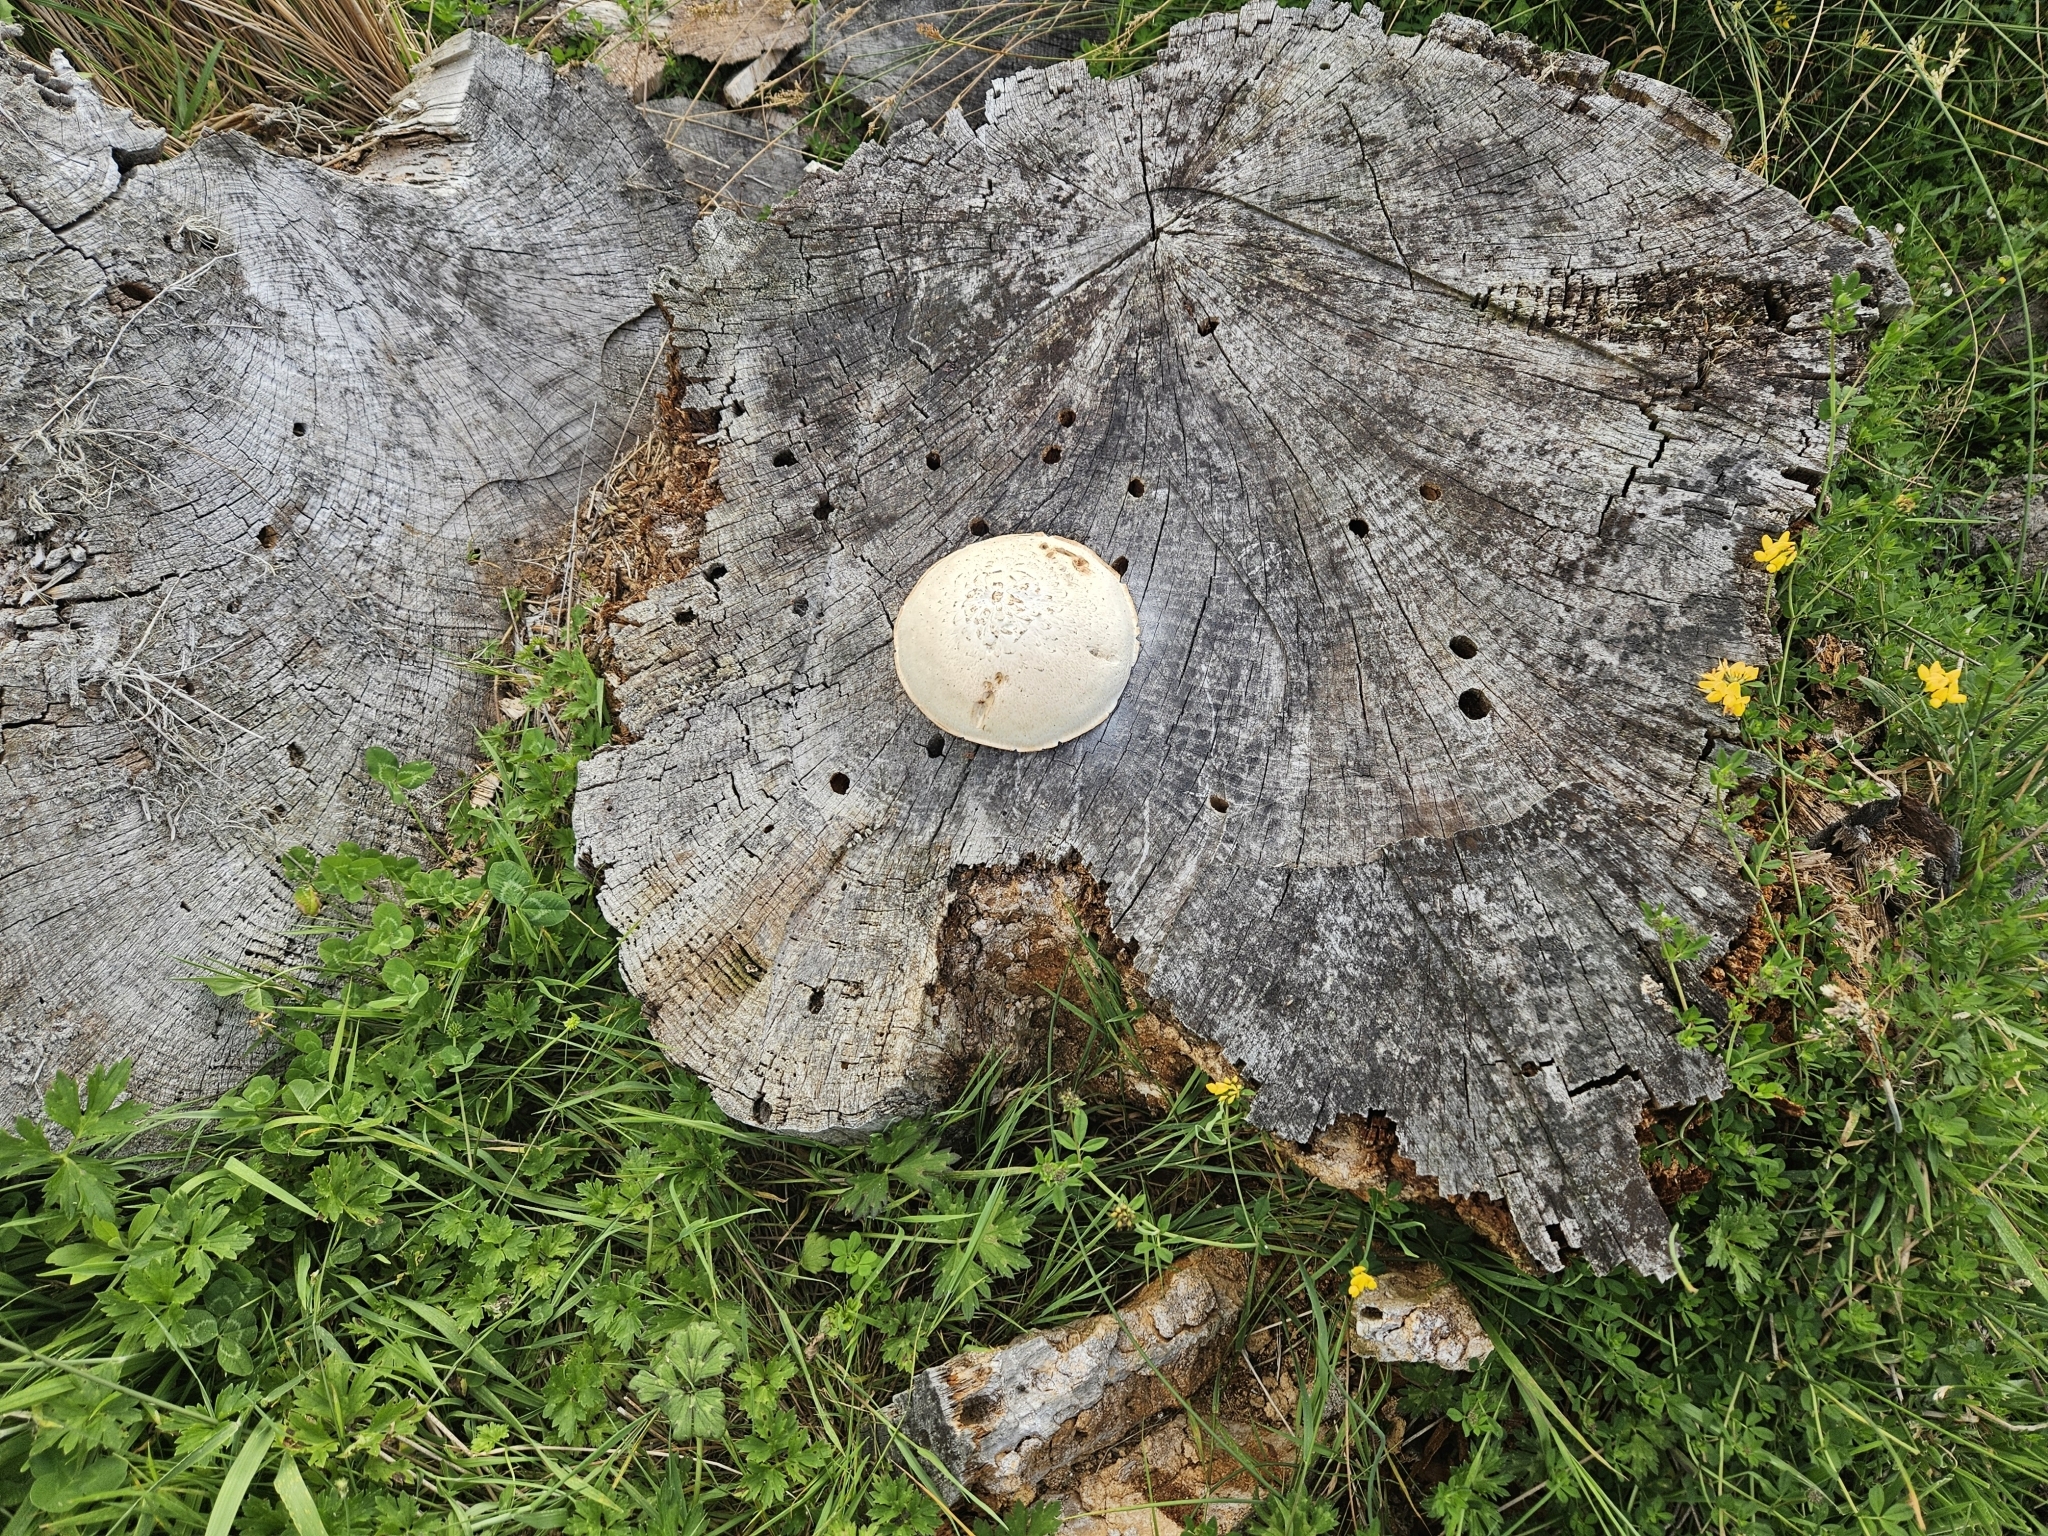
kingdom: Fungi
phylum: Basidiomycota
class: Agaricomycetes
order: Gloeophyllales
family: Gloeophyllaceae
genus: Neolentinus
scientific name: Neolentinus lepideus
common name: Scaly sawgill
